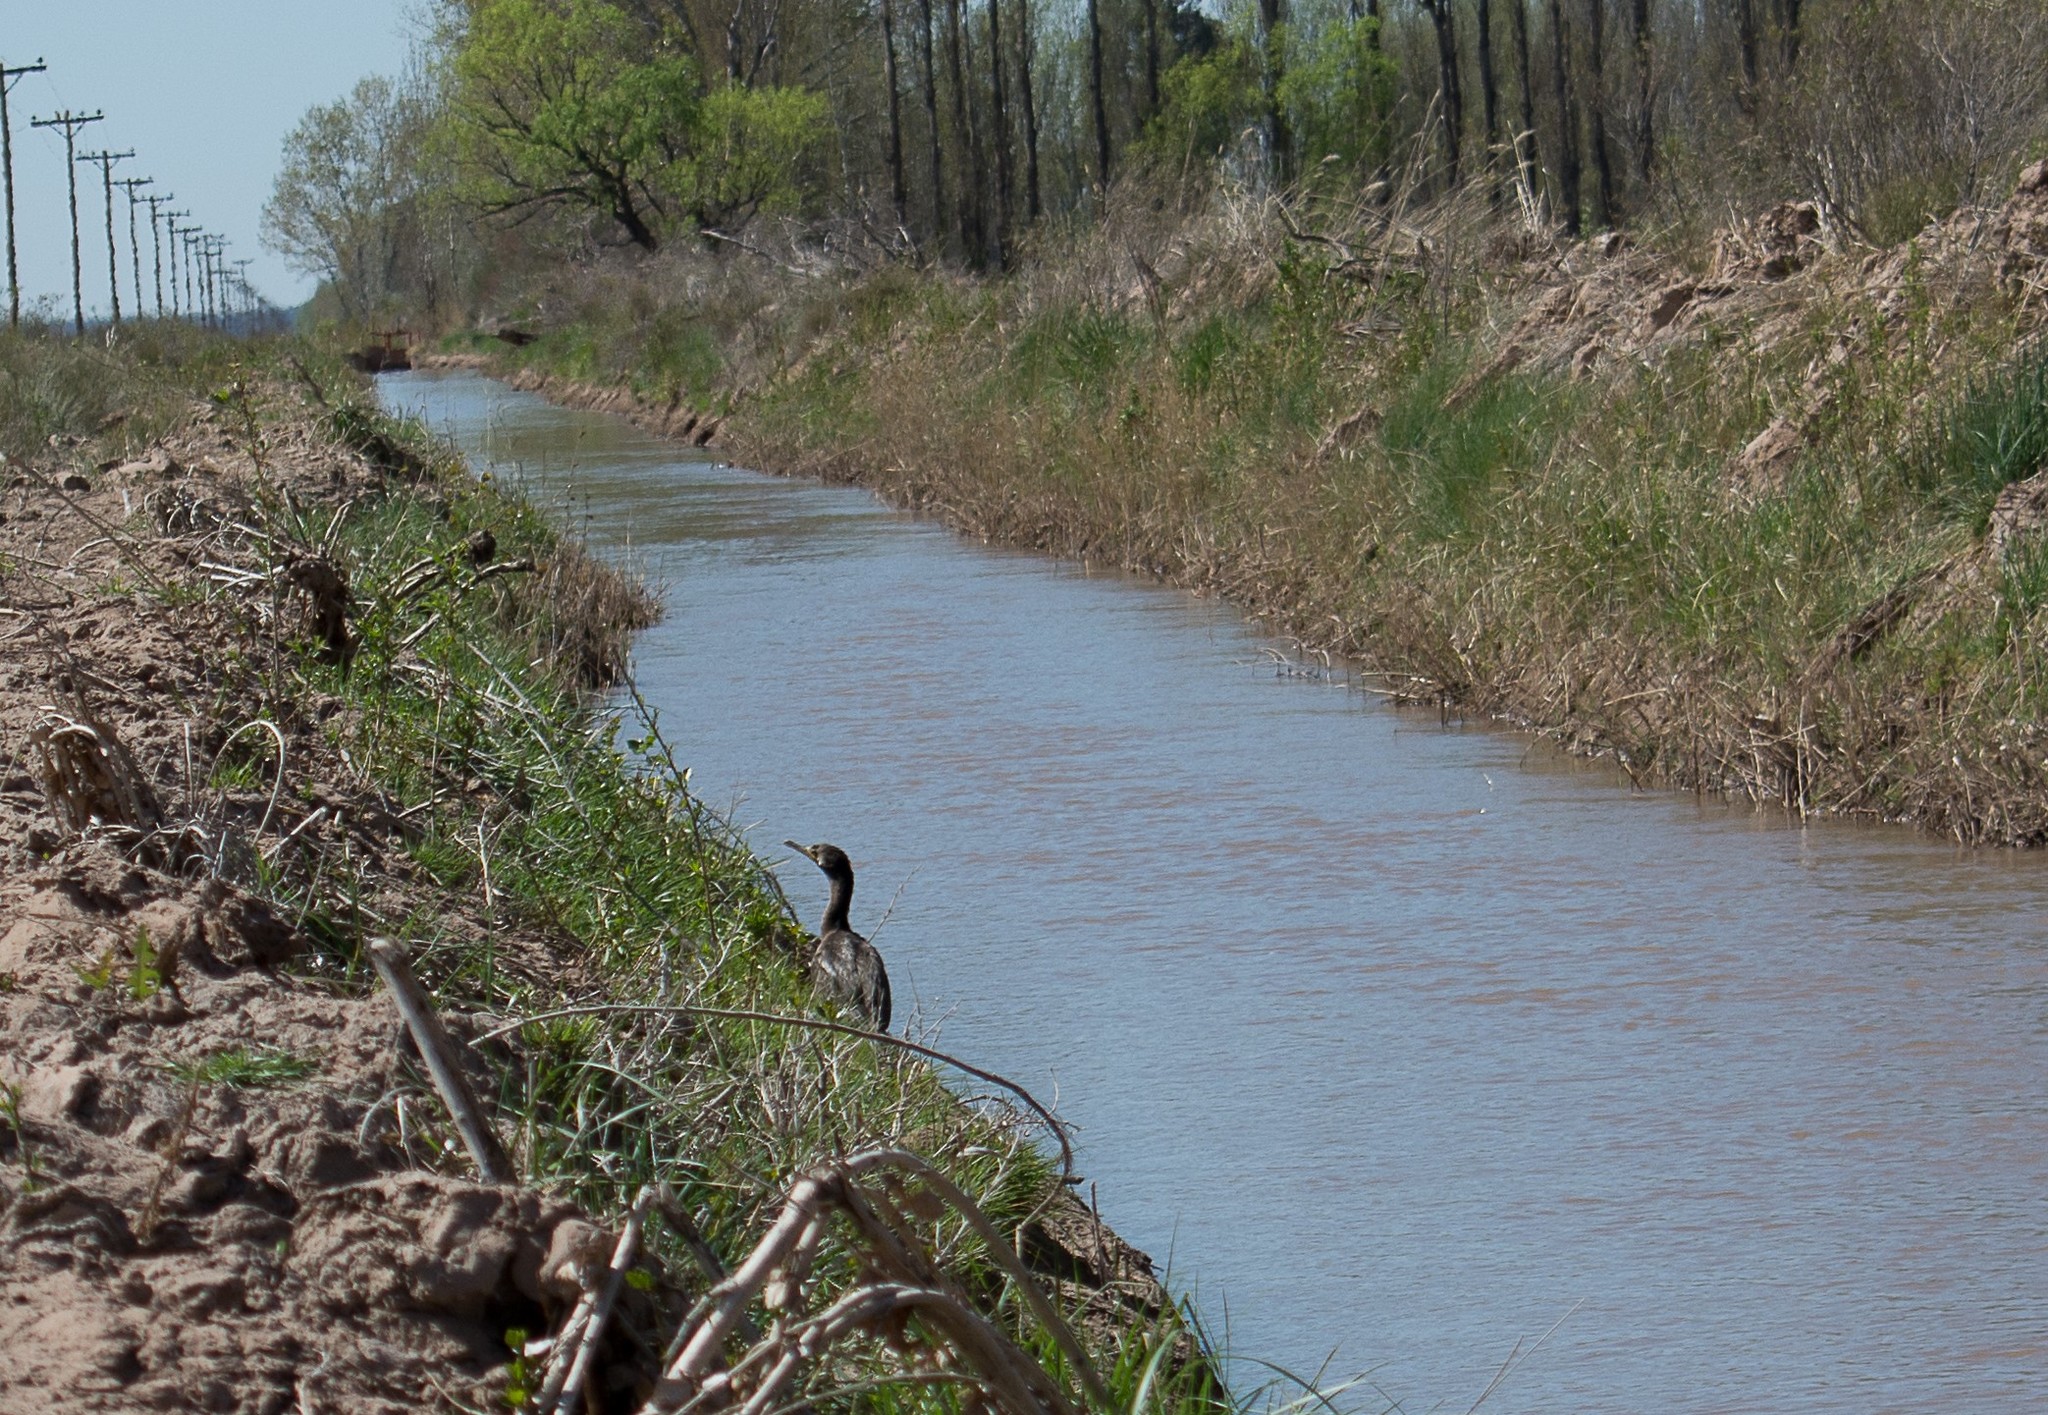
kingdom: Animalia
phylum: Chordata
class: Aves
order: Suliformes
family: Phalacrocoracidae
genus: Phalacrocorax
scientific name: Phalacrocorax brasilianus
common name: Neotropic cormorant
